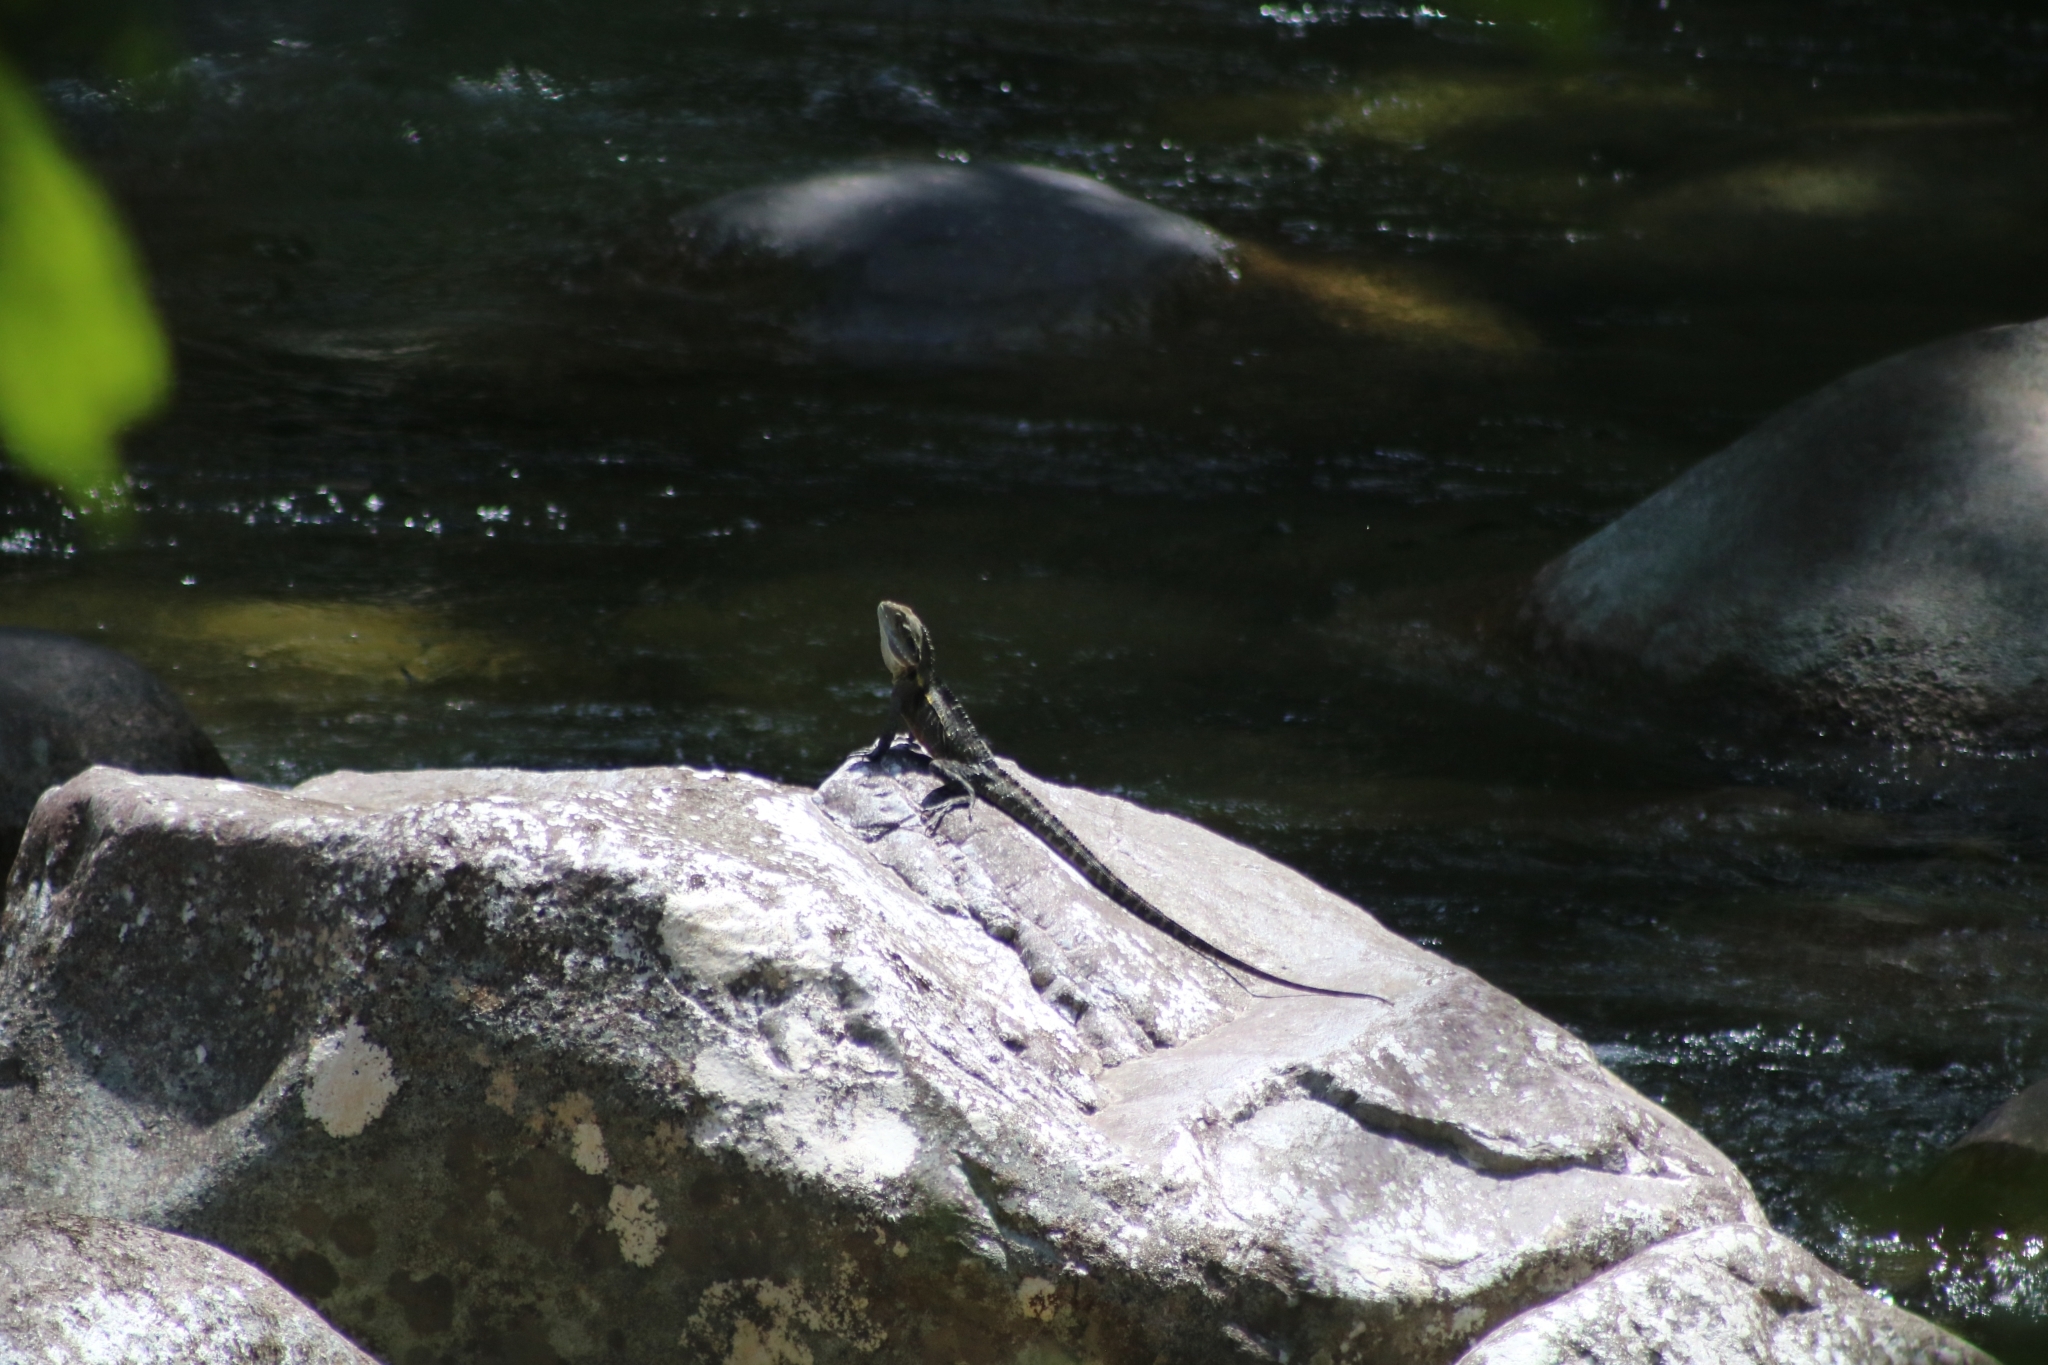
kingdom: Animalia
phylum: Chordata
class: Squamata
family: Agamidae
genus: Intellagama
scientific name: Intellagama lesueurii
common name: Eastern water dragon
